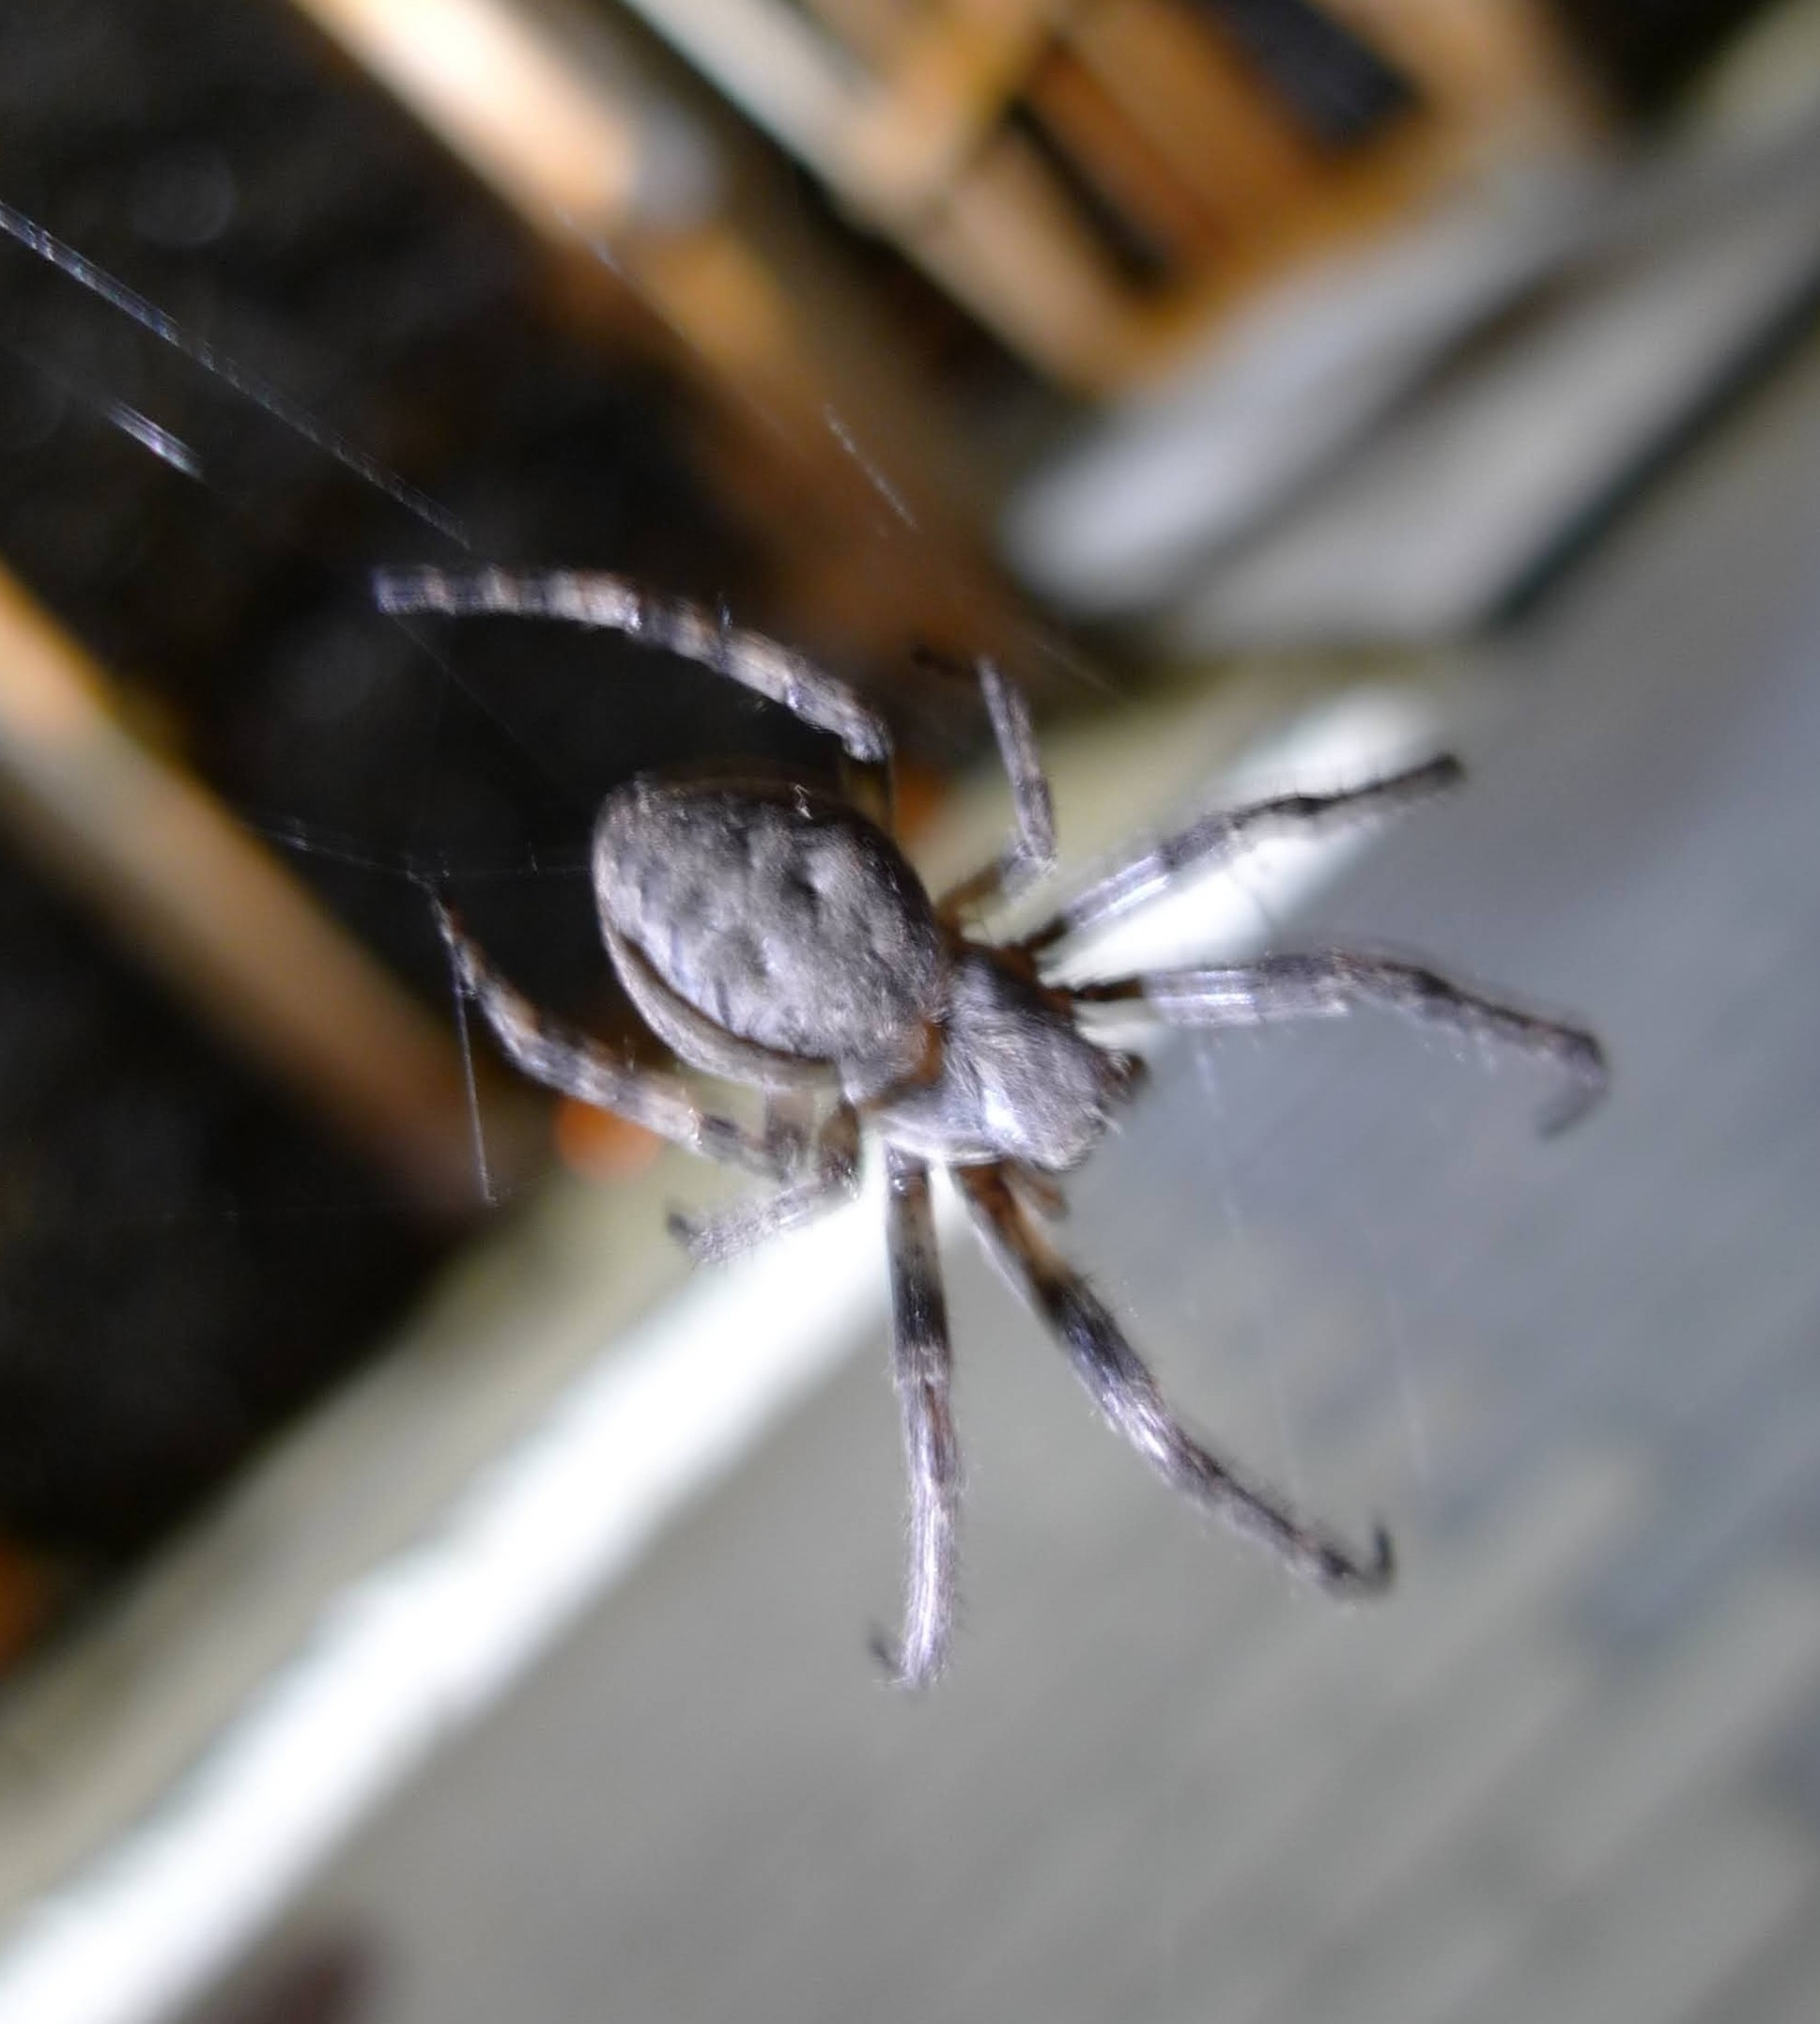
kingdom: Animalia
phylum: Arthropoda
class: Arachnida
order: Araneae
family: Araneidae
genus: Larinioides
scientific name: Larinioides ixobolus
